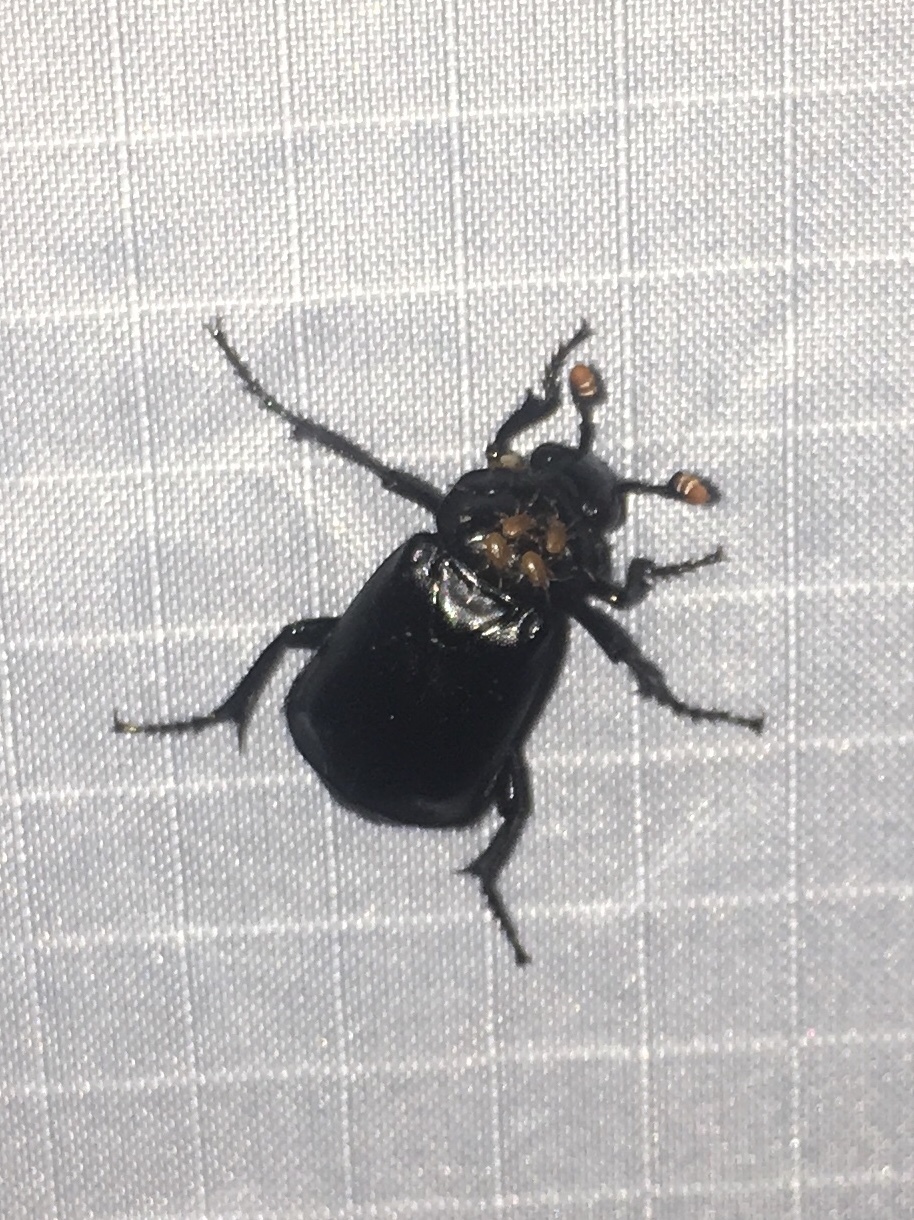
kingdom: Animalia
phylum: Arthropoda
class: Insecta
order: Coleoptera
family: Staphylinidae
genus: Nicrophorus
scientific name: Nicrophorus nigrita
